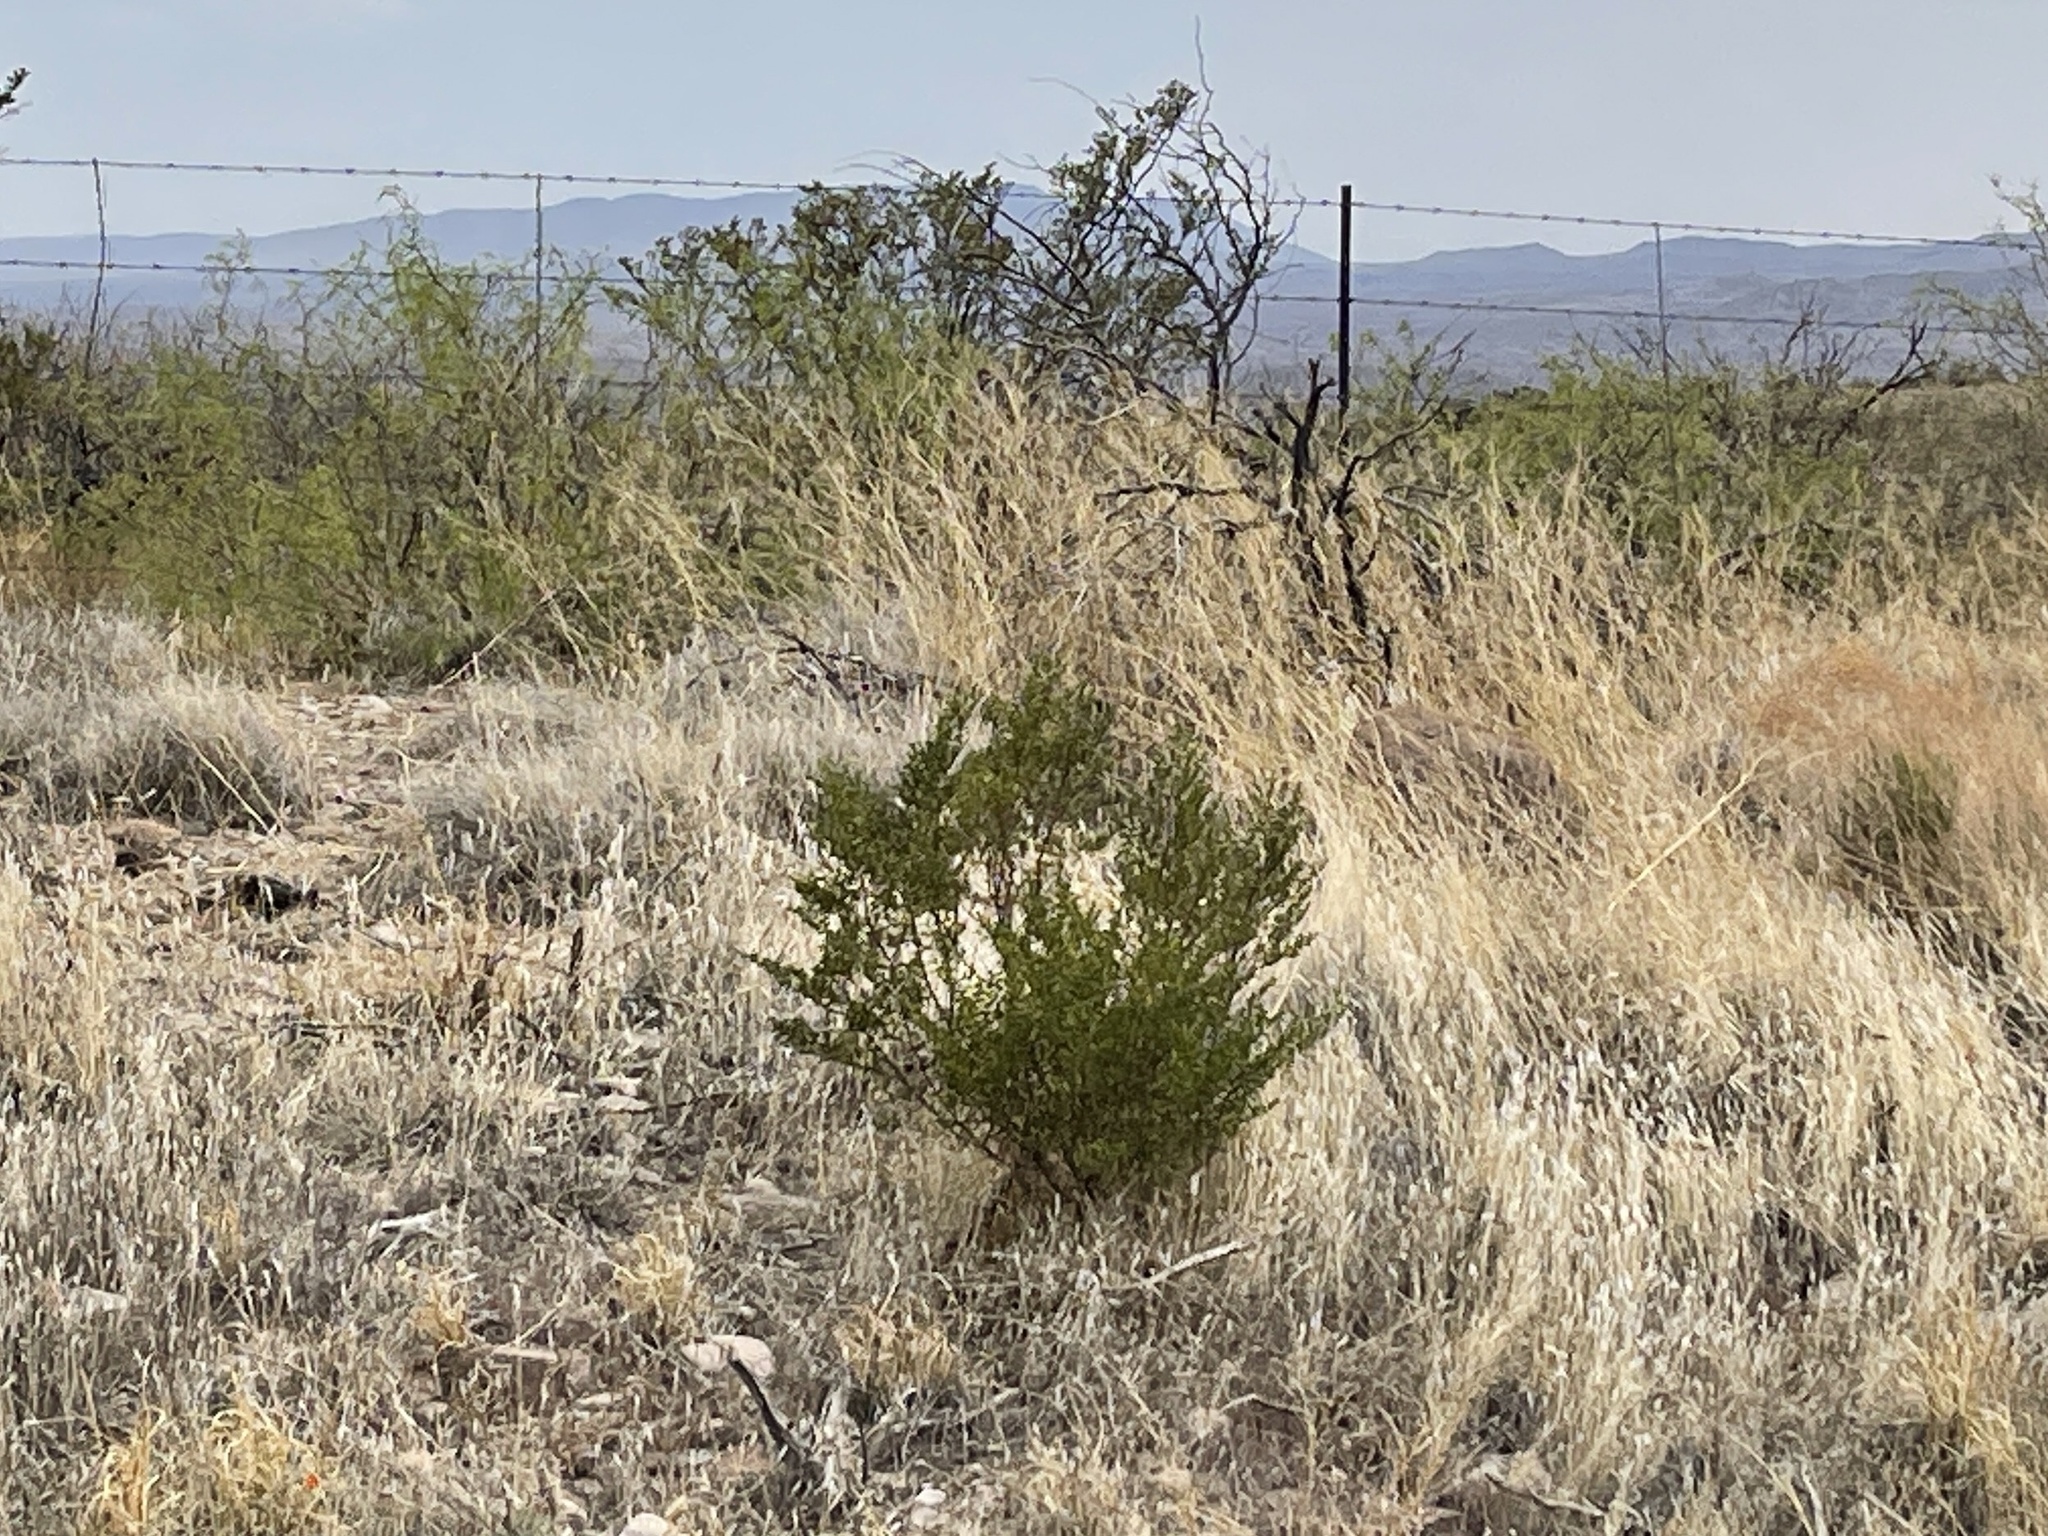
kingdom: Plantae
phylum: Tracheophyta
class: Magnoliopsida
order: Zygophyllales
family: Zygophyllaceae
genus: Larrea
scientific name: Larrea tridentata
